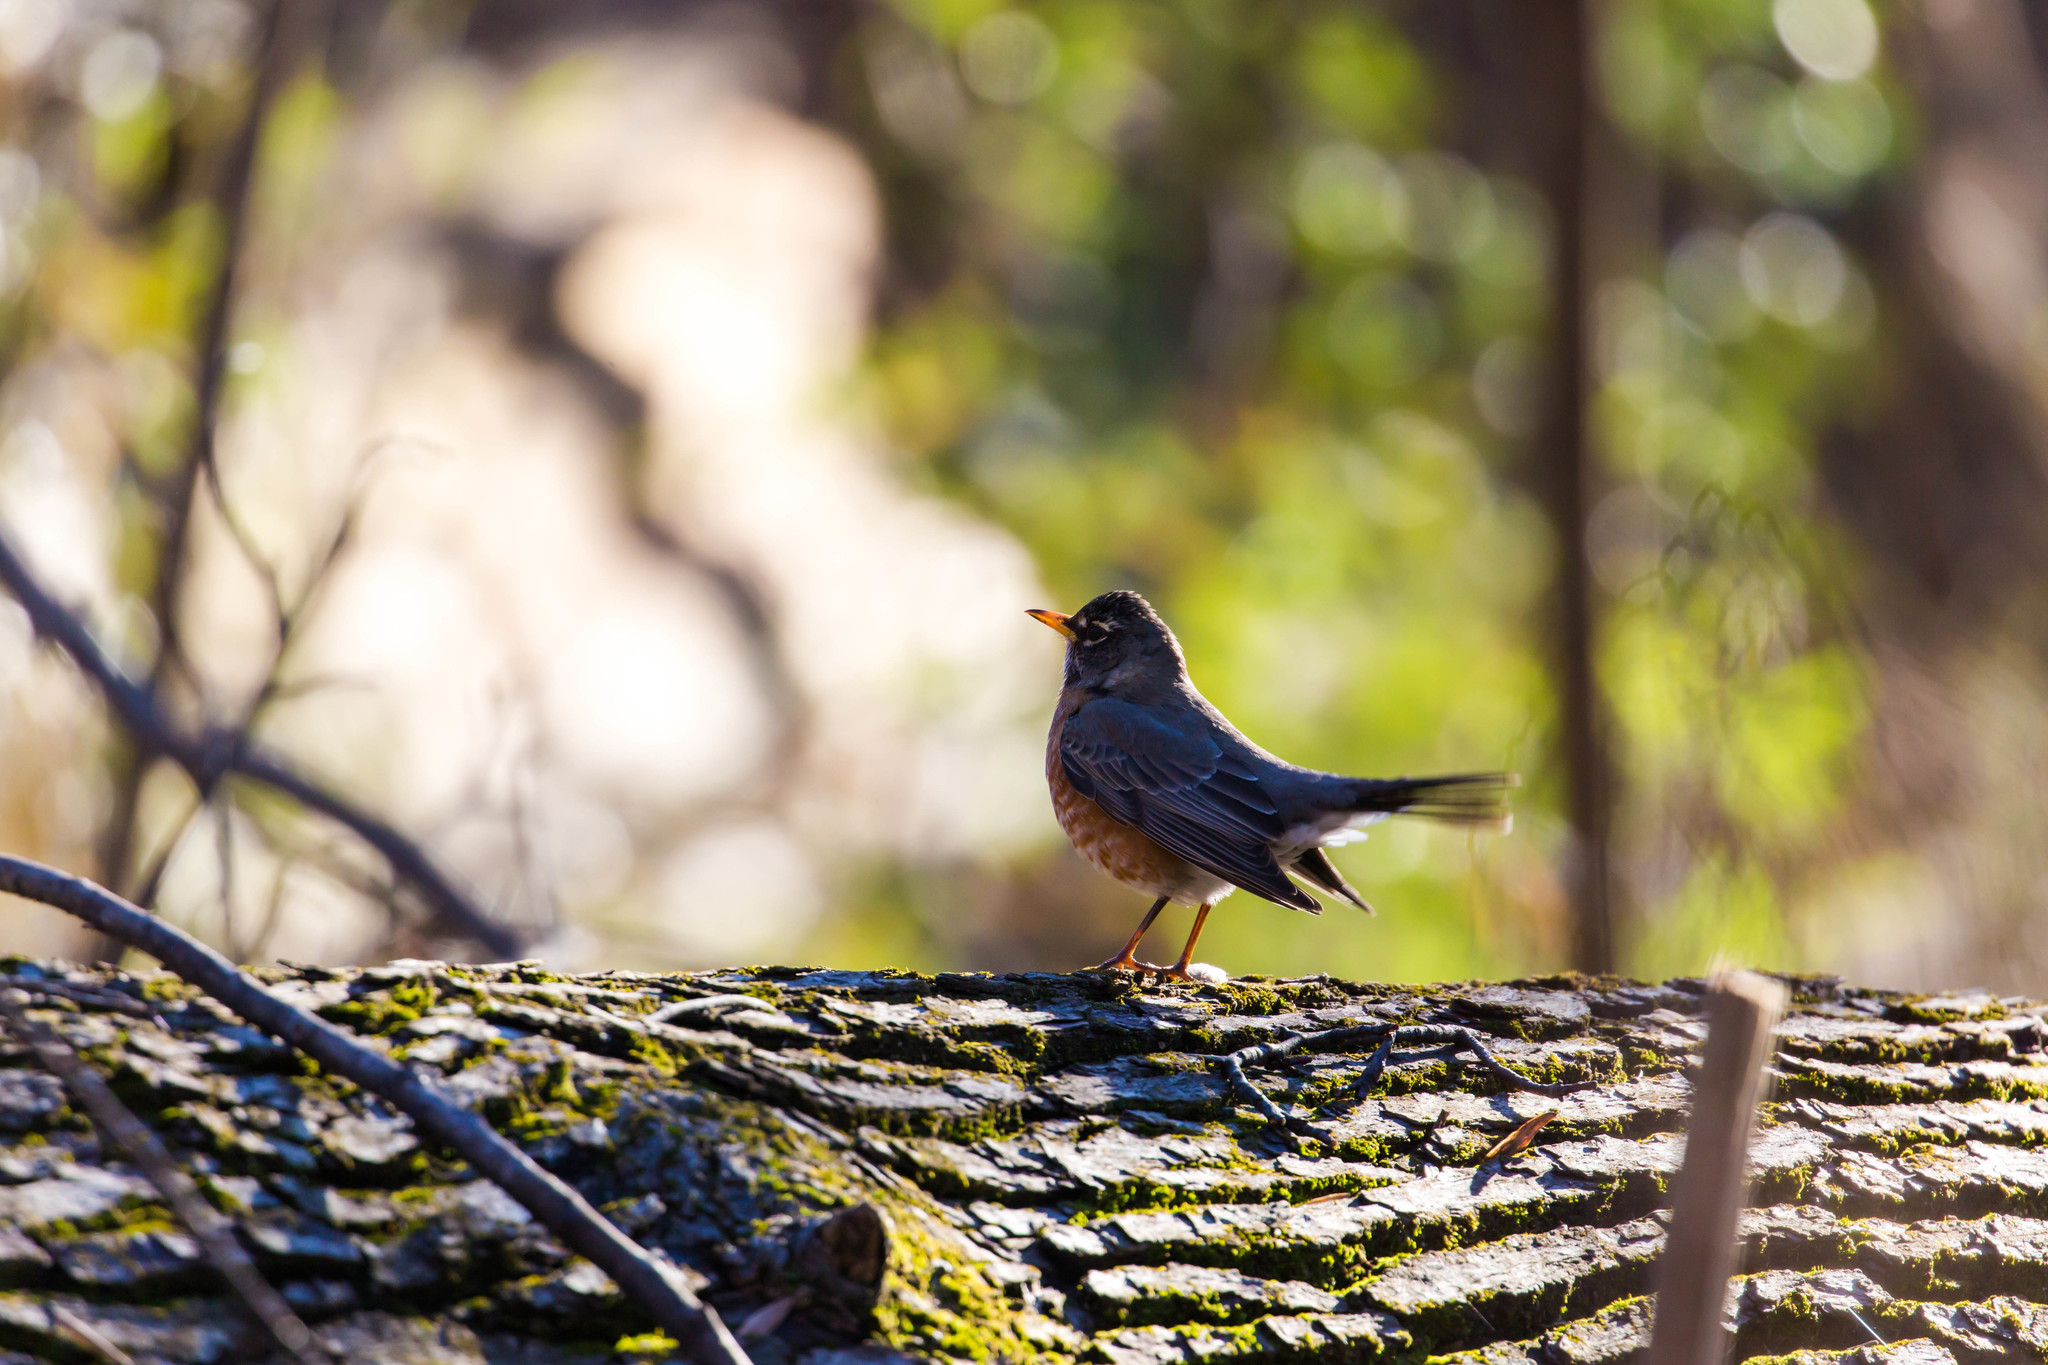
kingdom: Animalia
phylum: Chordata
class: Aves
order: Passeriformes
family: Turdidae
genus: Turdus
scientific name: Turdus migratorius
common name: American robin
